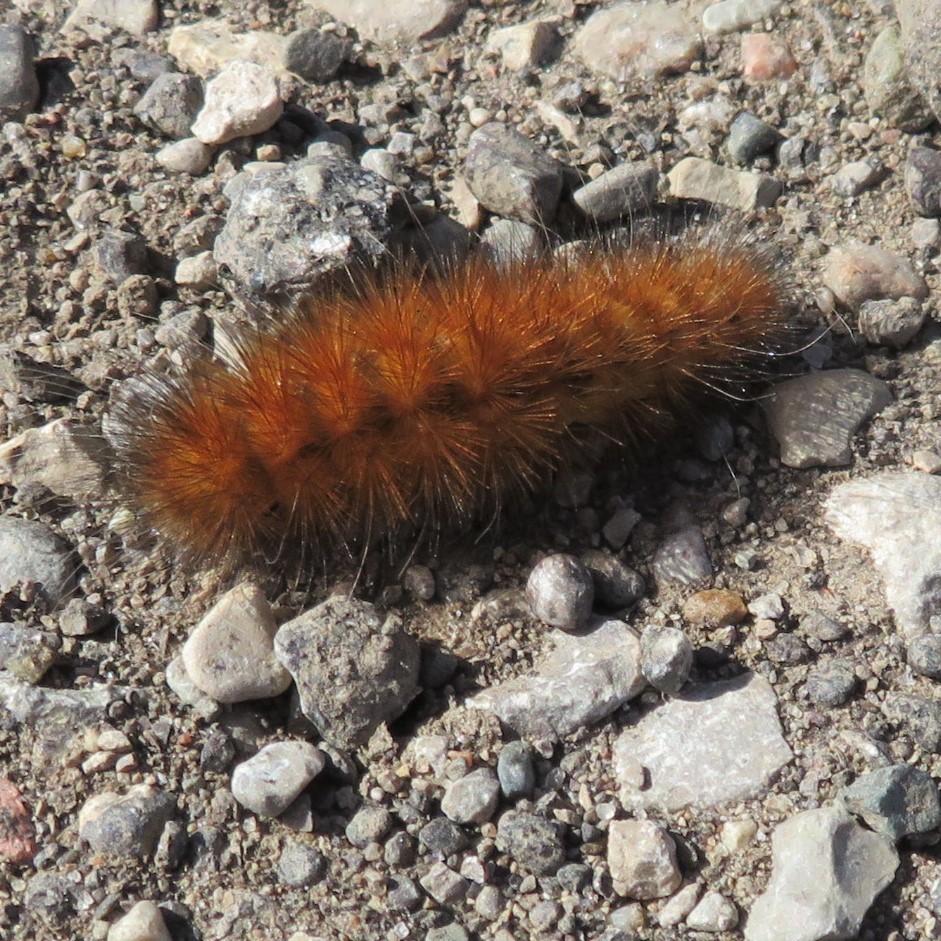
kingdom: Animalia
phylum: Arthropoda
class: Insecta
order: Lepidoptera
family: Erebidae
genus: Spilosoma
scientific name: Spilosoma virginica
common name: Virginia tiger moth
